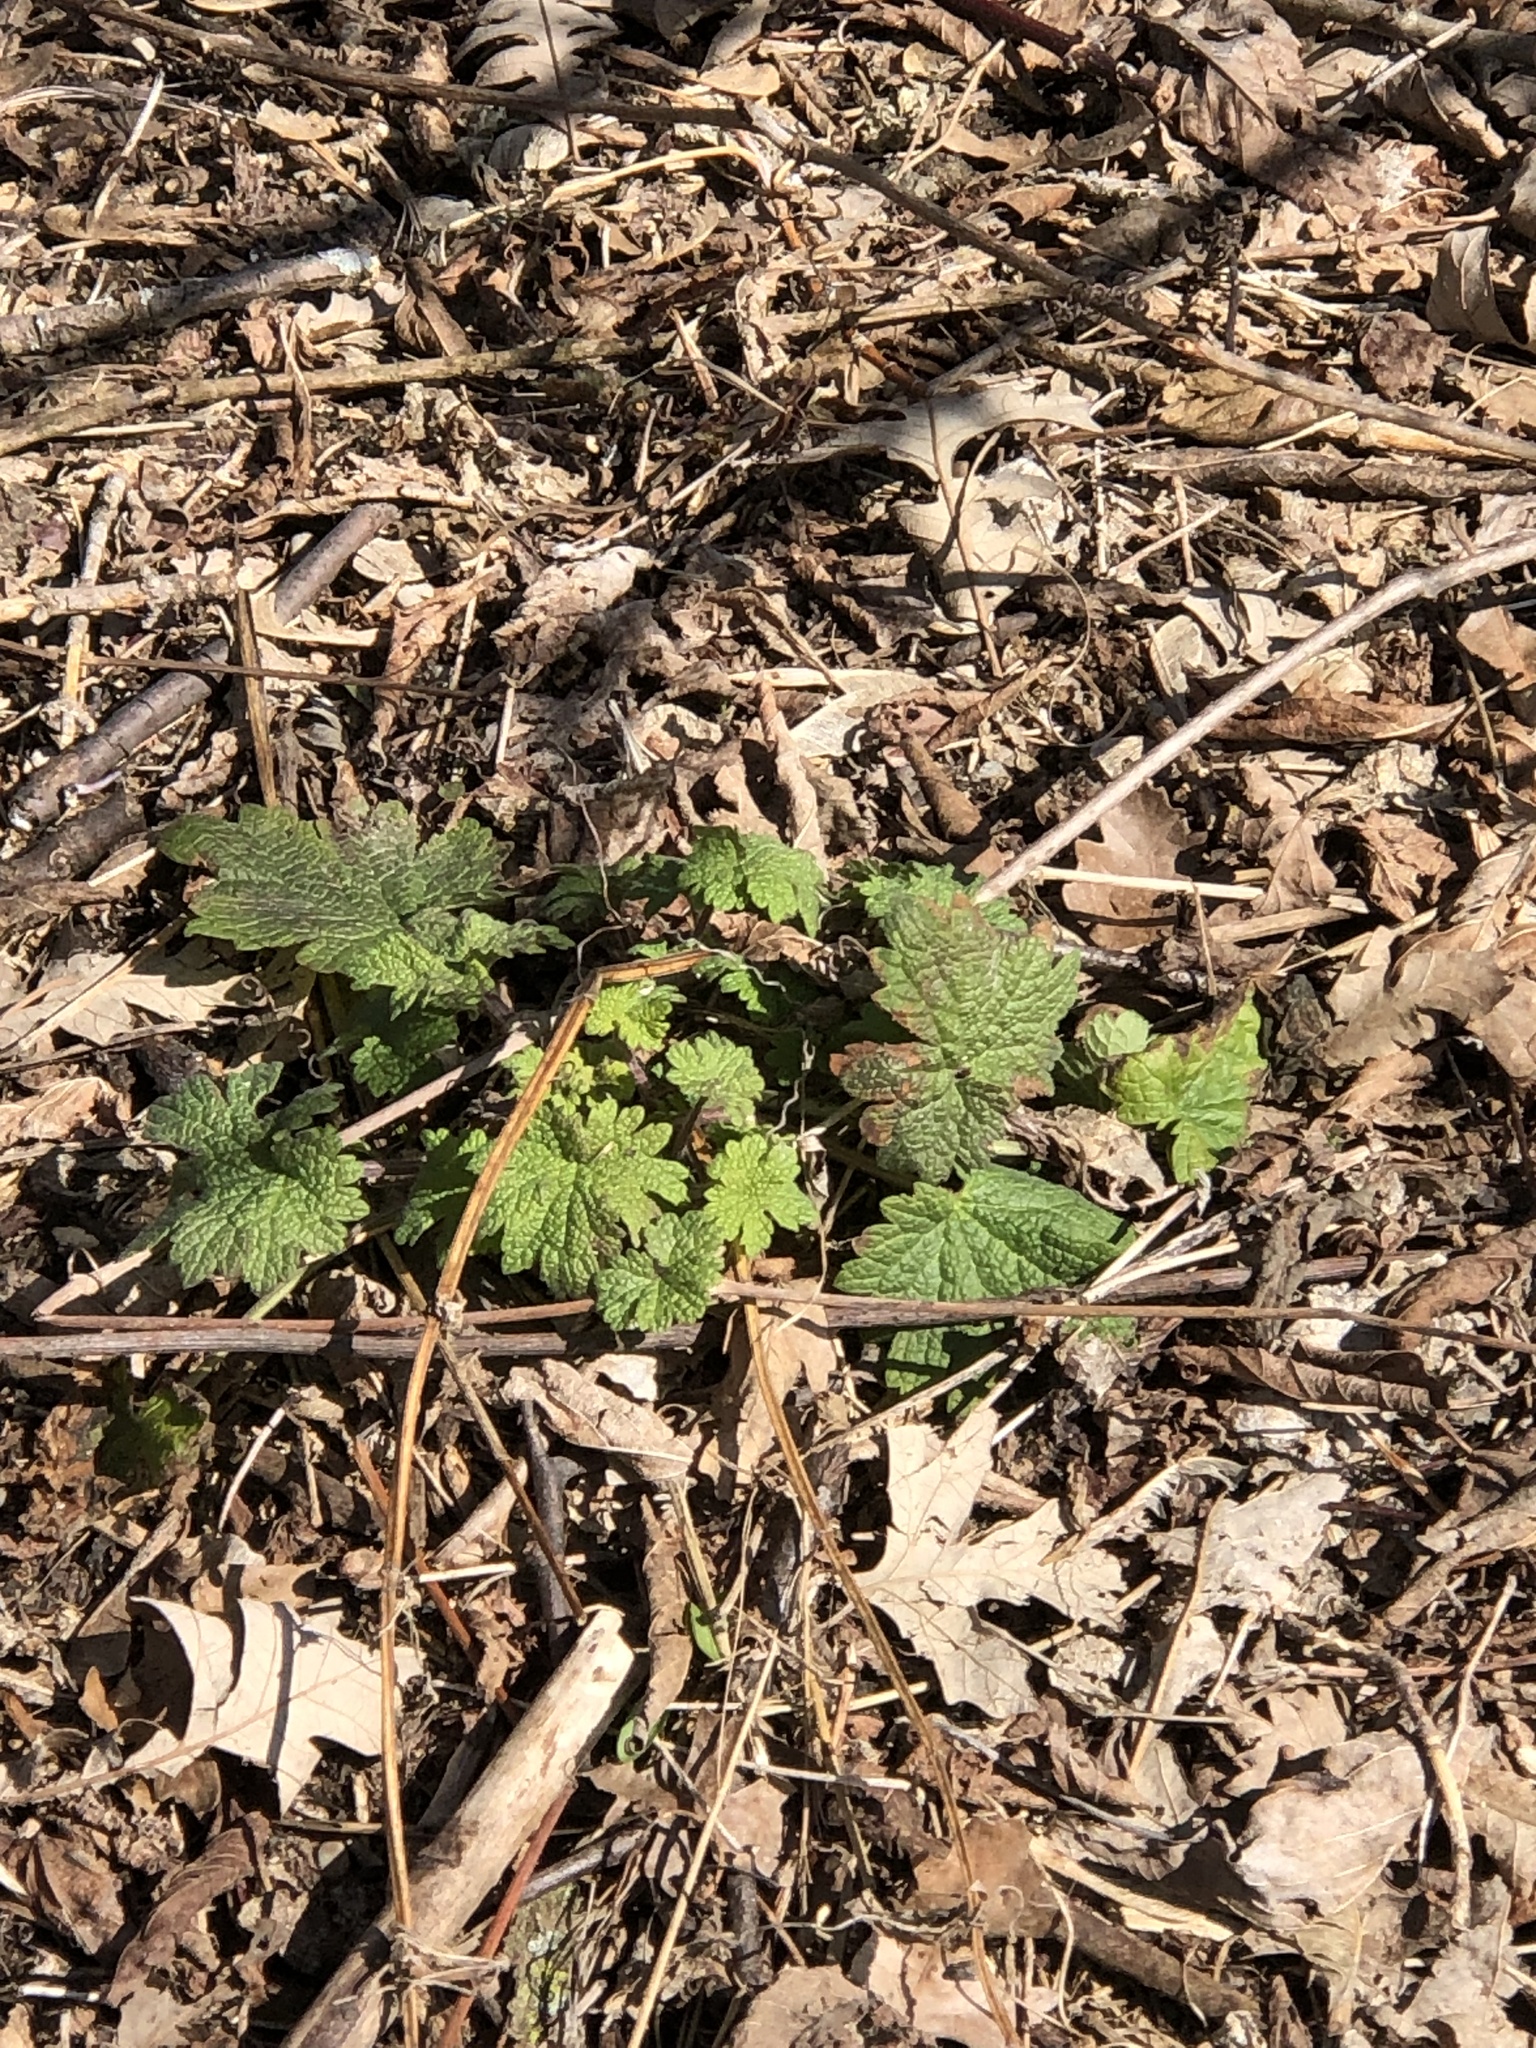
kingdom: Plantae
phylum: Tracheophyta
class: Magnoliopsida
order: Lamiales
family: Lamiaceae
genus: Leonurus
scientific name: Leonurus cardiaca
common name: Motherwort
